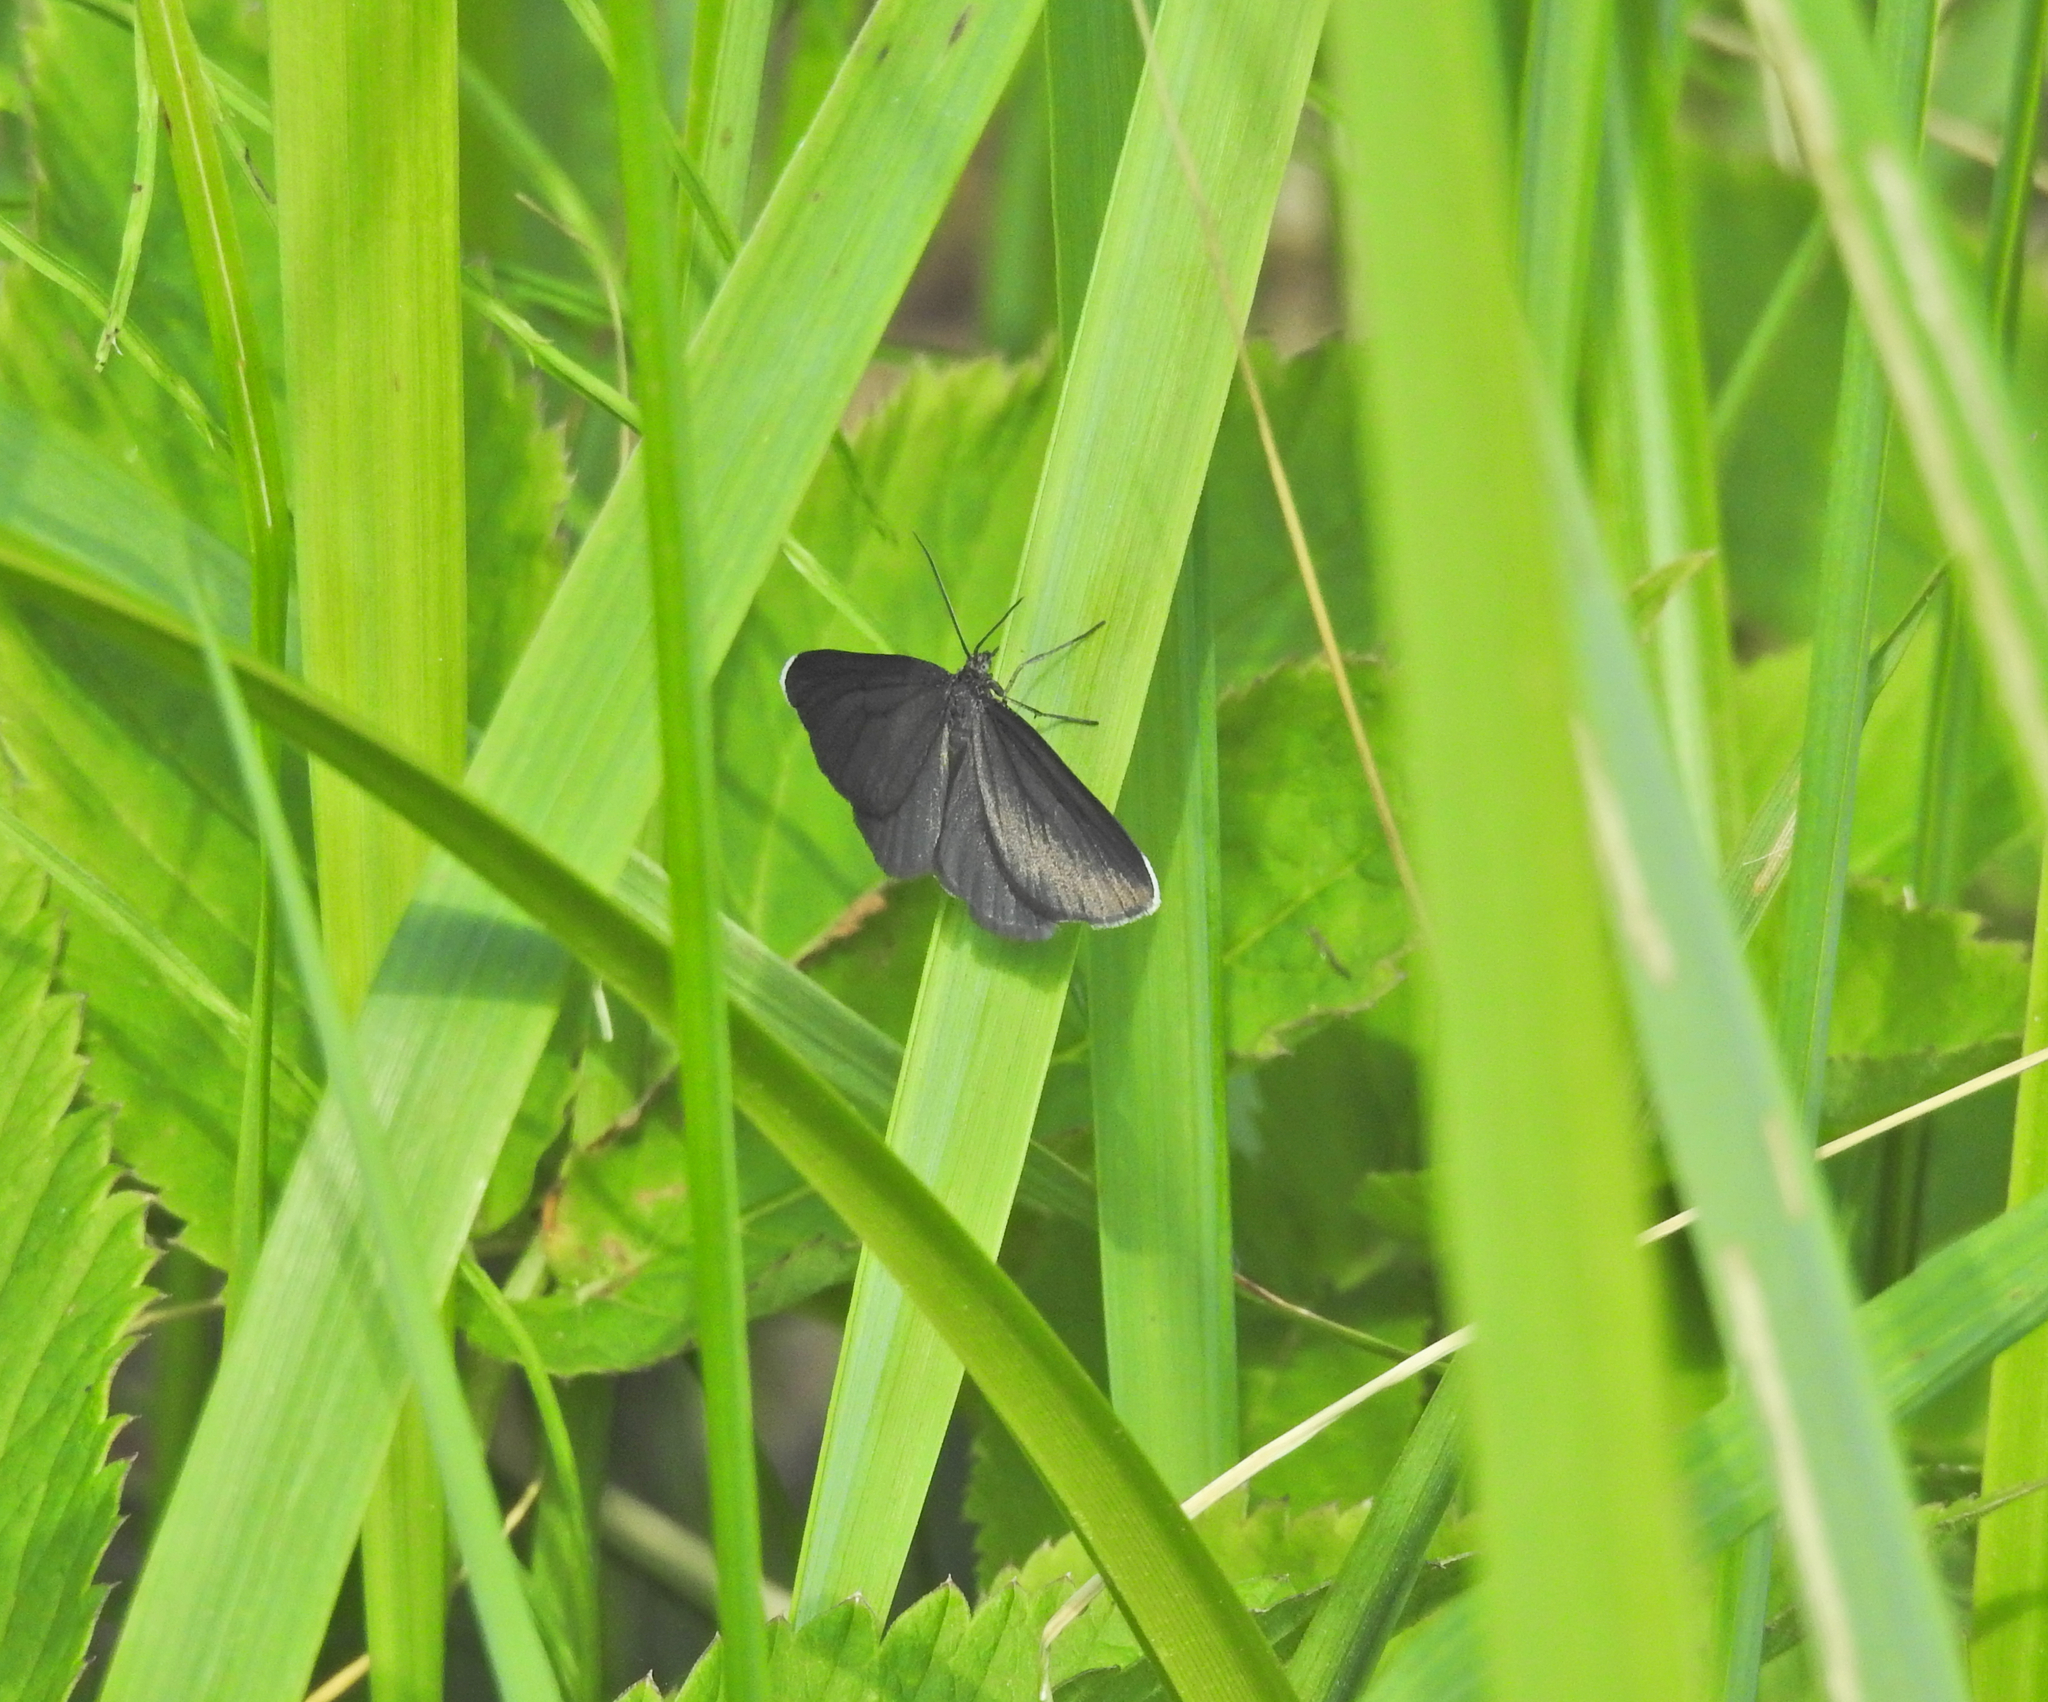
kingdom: Animalia
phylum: Arthropoda
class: Insecta
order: Lepidoptera
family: Geometridae
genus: Odezia
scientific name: Odezia atrata
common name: Chimney sweeper
